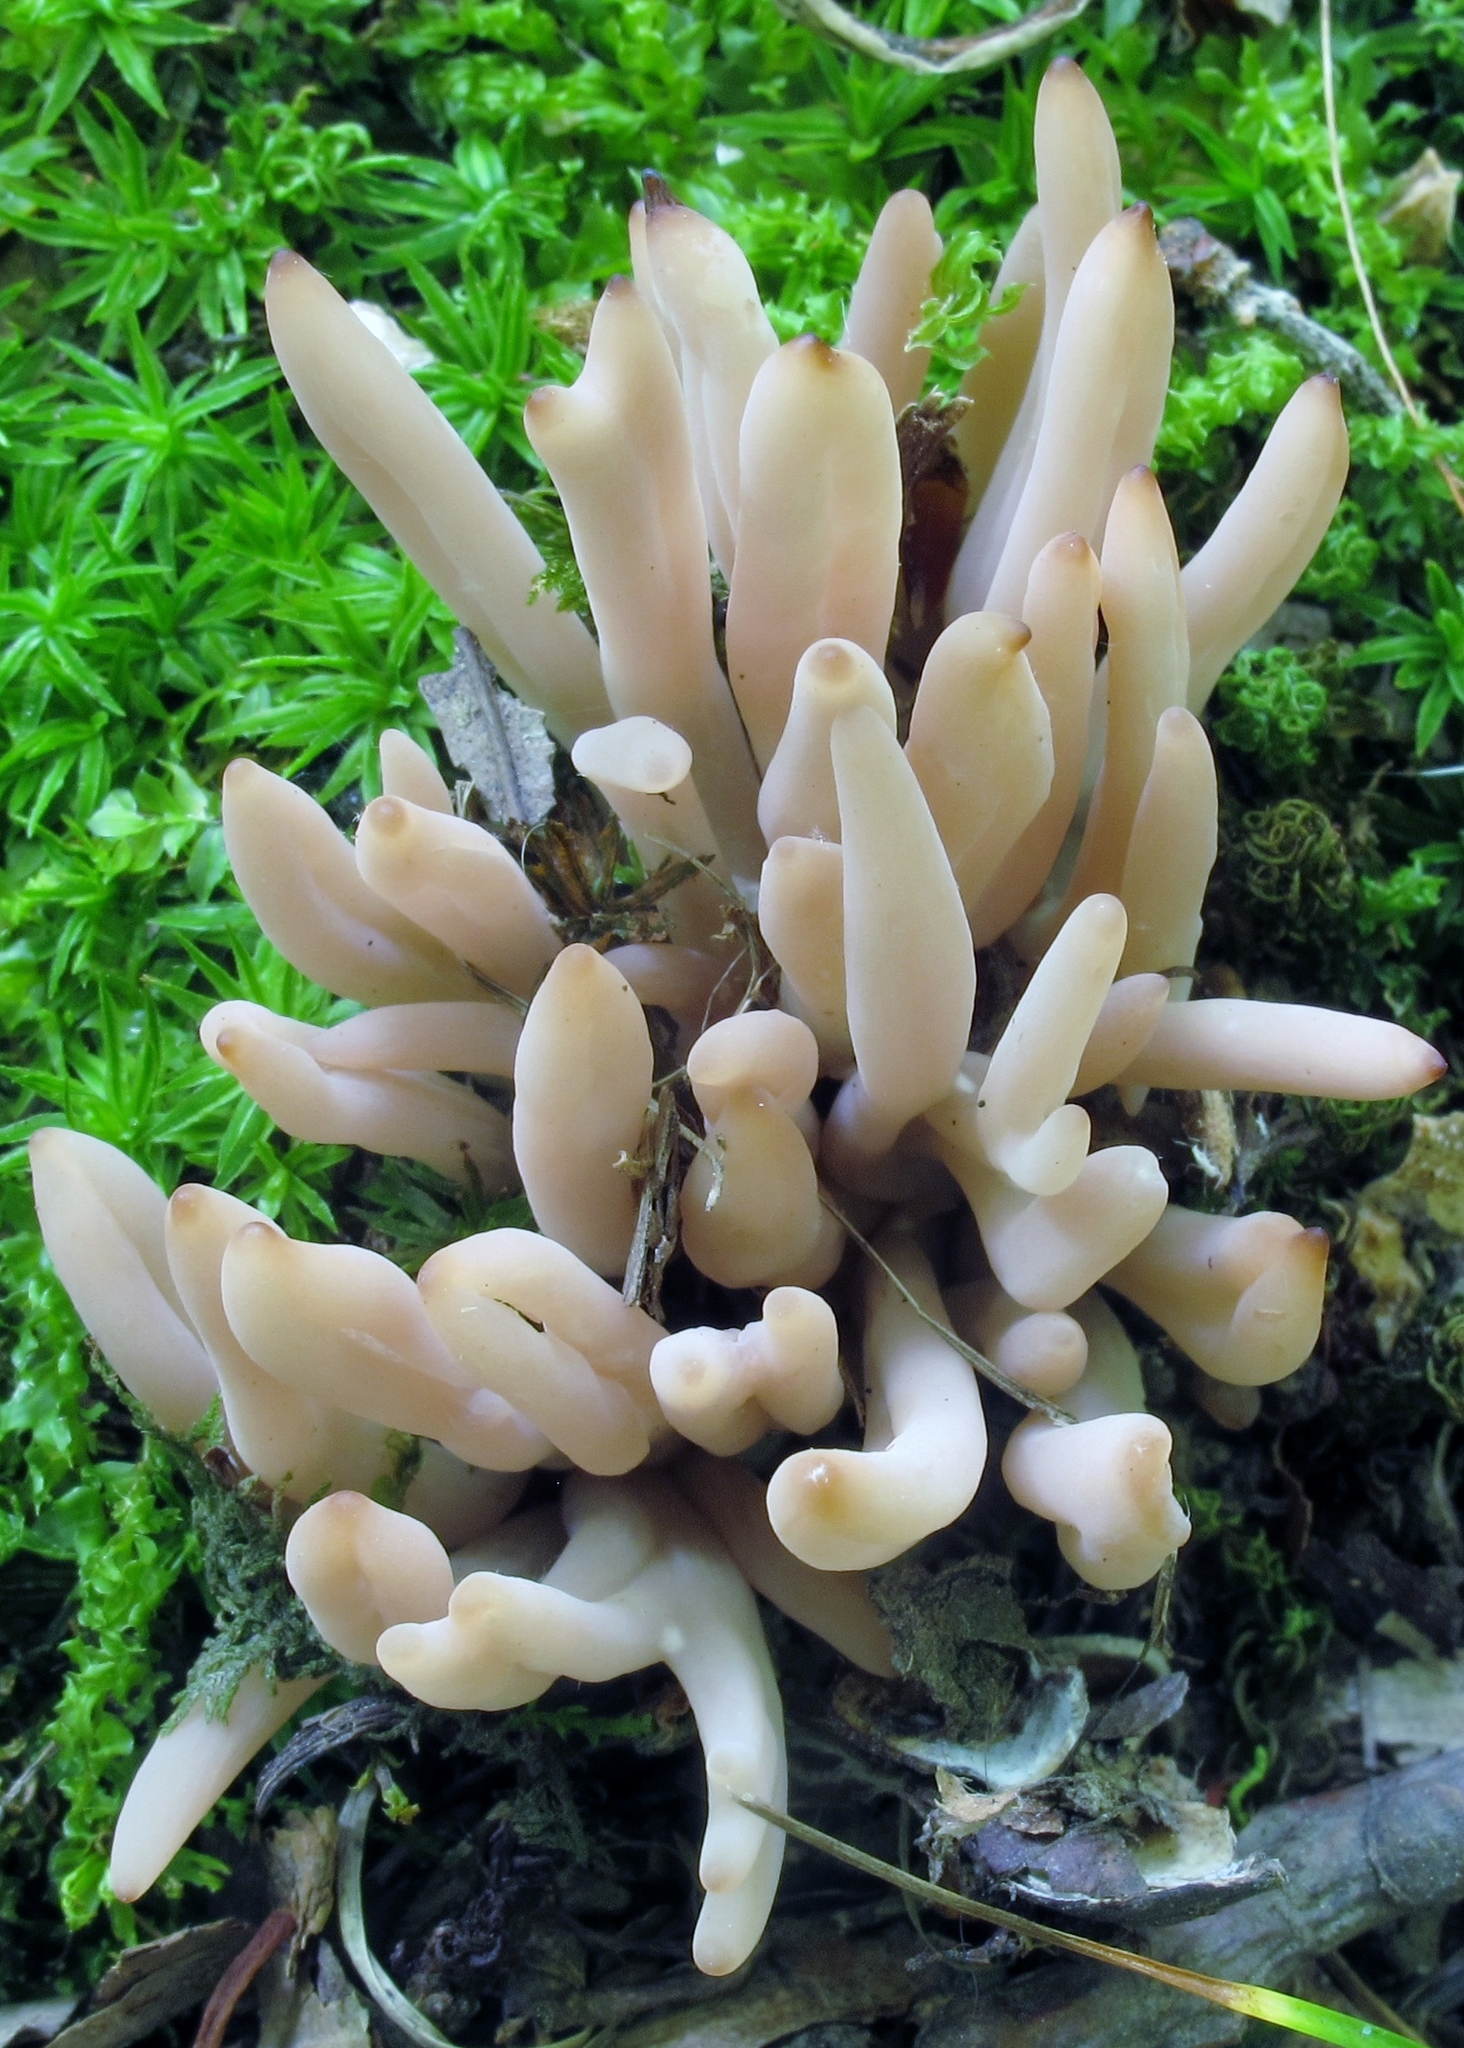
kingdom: Fungi
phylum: Basidiomycota
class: Agaricomycetes
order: Agaricales
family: Clavariaceae
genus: Clavaria
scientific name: Clavaria rubicundula
